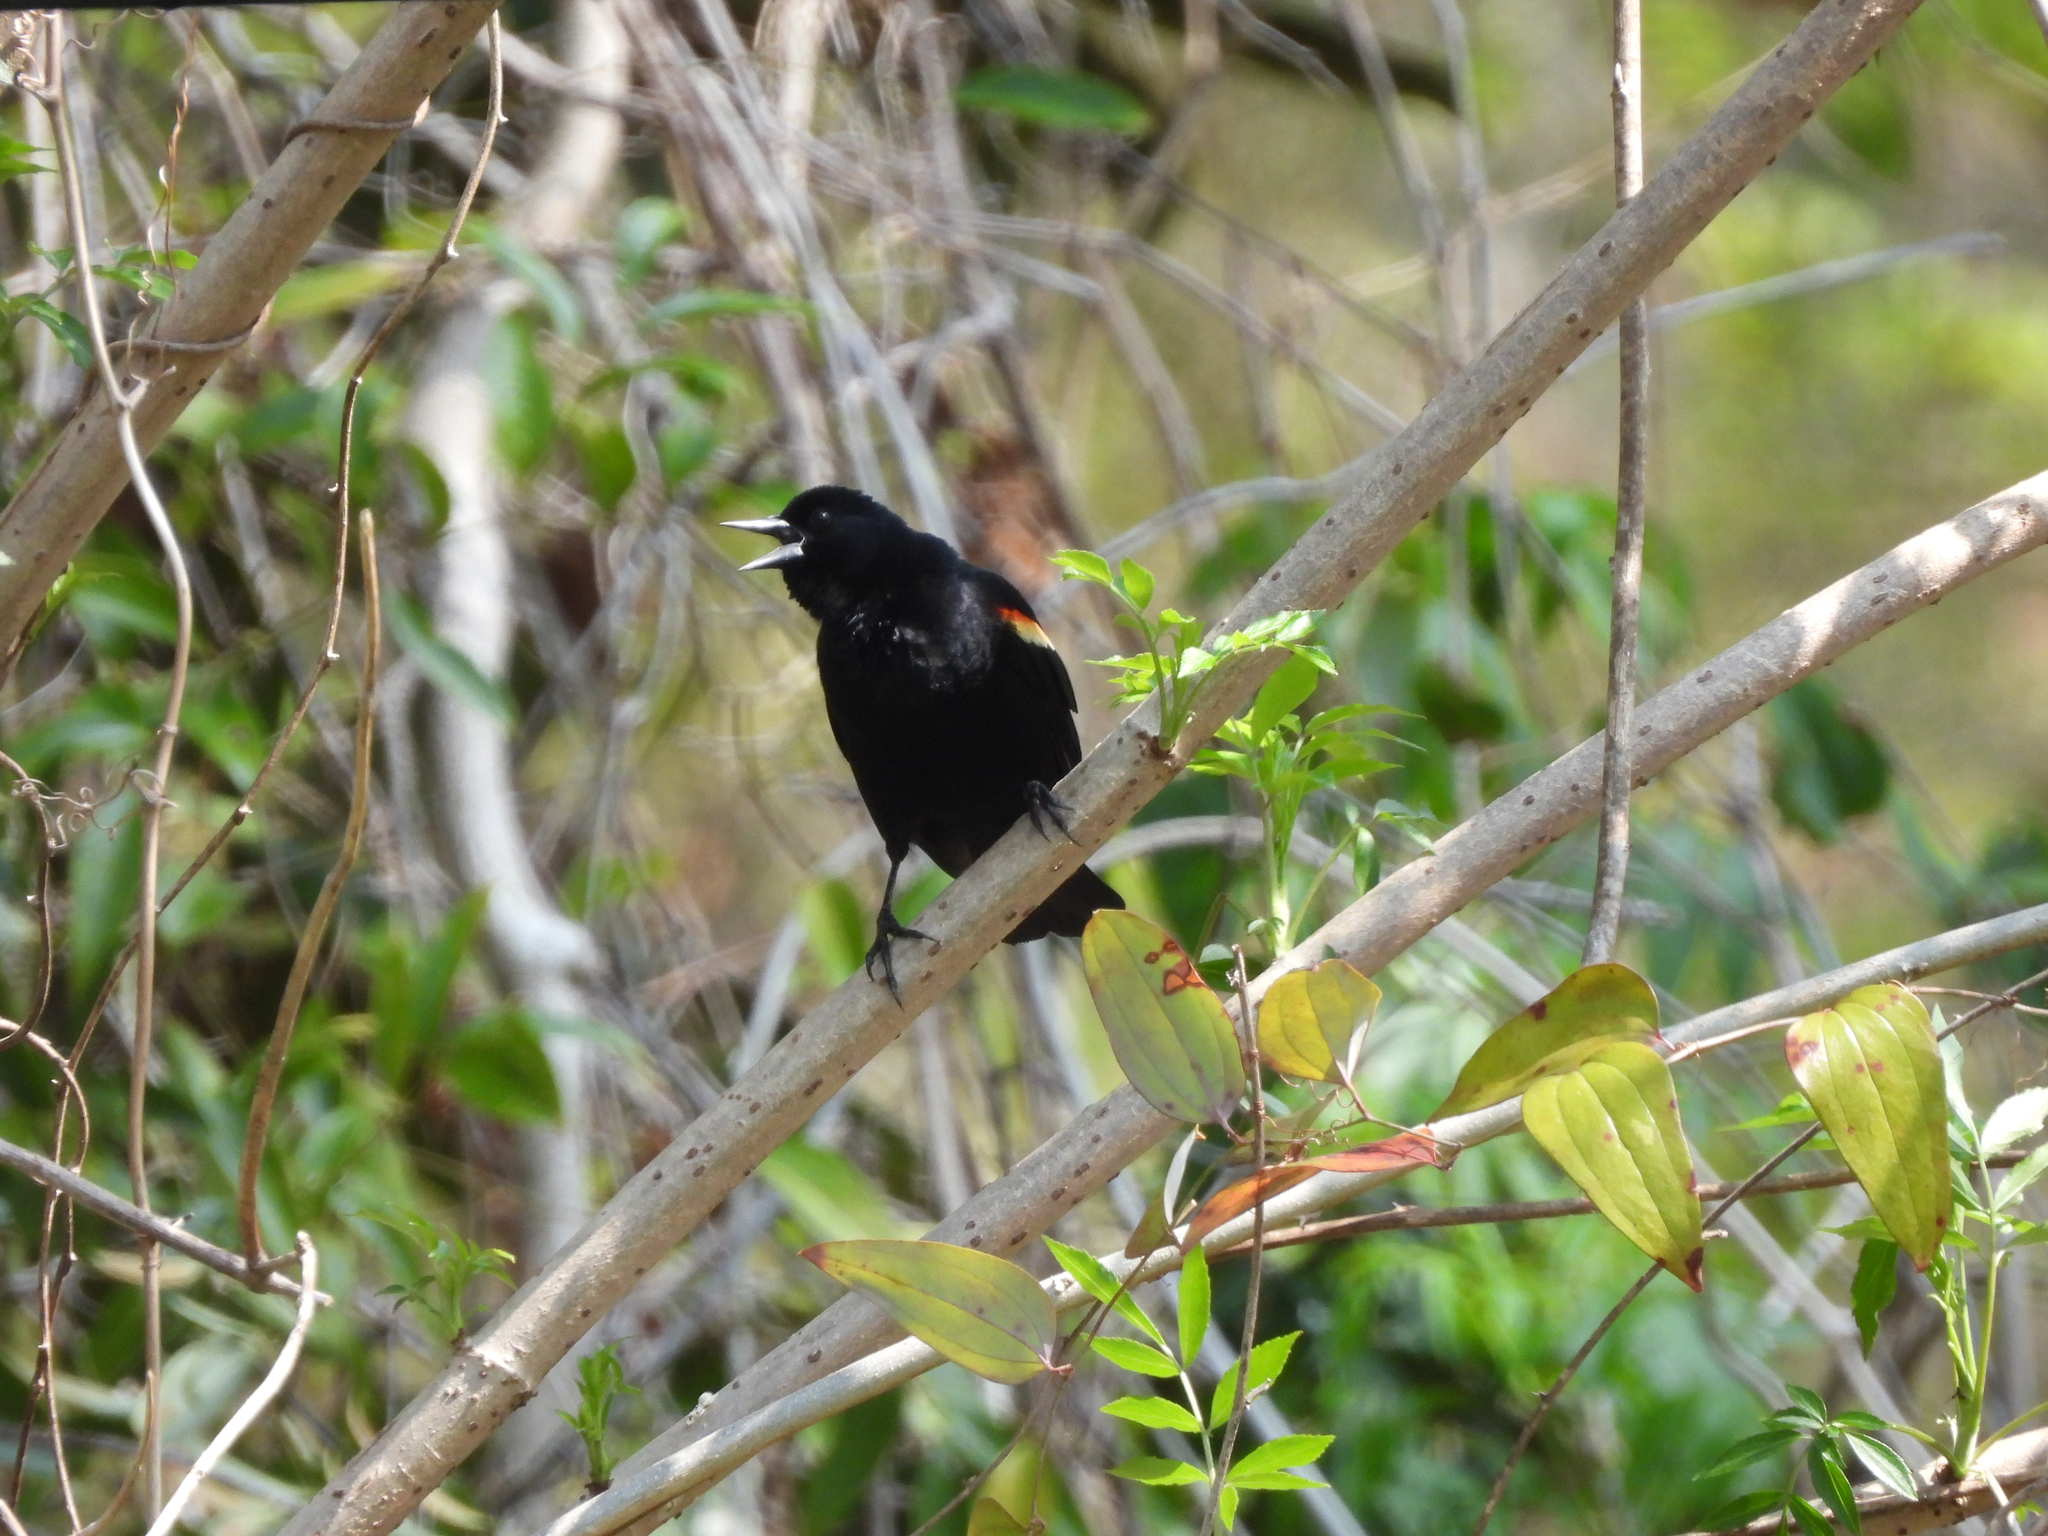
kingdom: Animalia
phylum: Chordata
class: Aves
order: Passeriformes
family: Icteridae
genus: Agelaius
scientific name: Agelaius phoeniceus
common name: Red-winged blackbird
